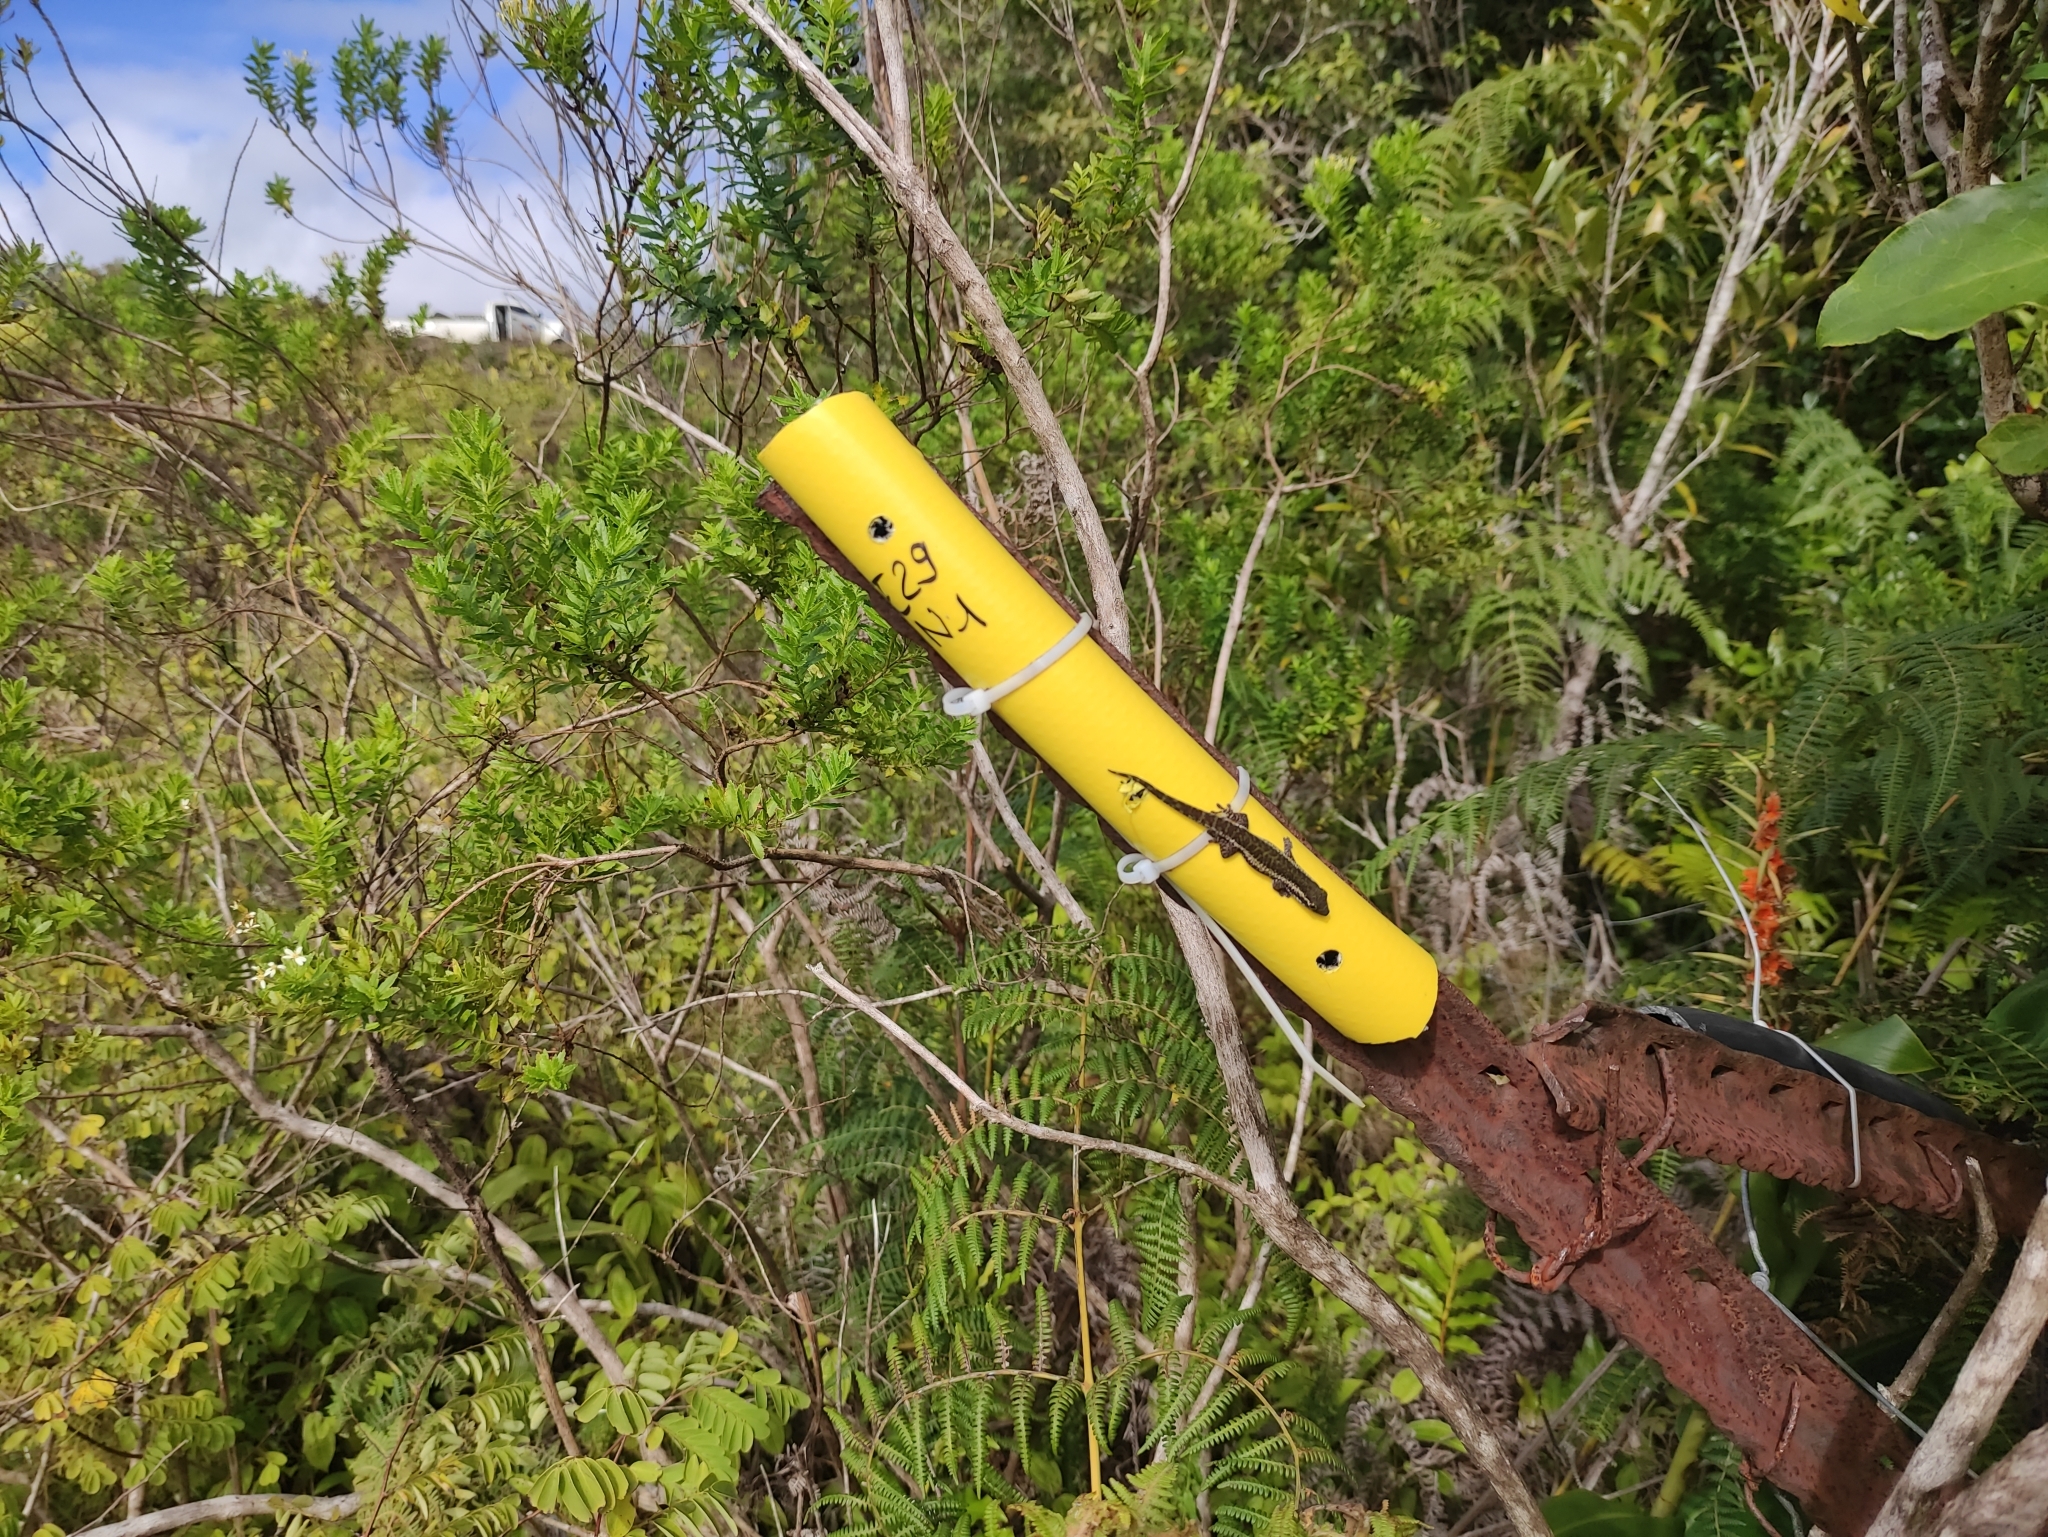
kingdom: Animalia
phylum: Chordata
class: Squamata
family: Gekkonidae
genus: Phelsuma
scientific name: Phelsuma borbonica
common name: Réunion day gecko
